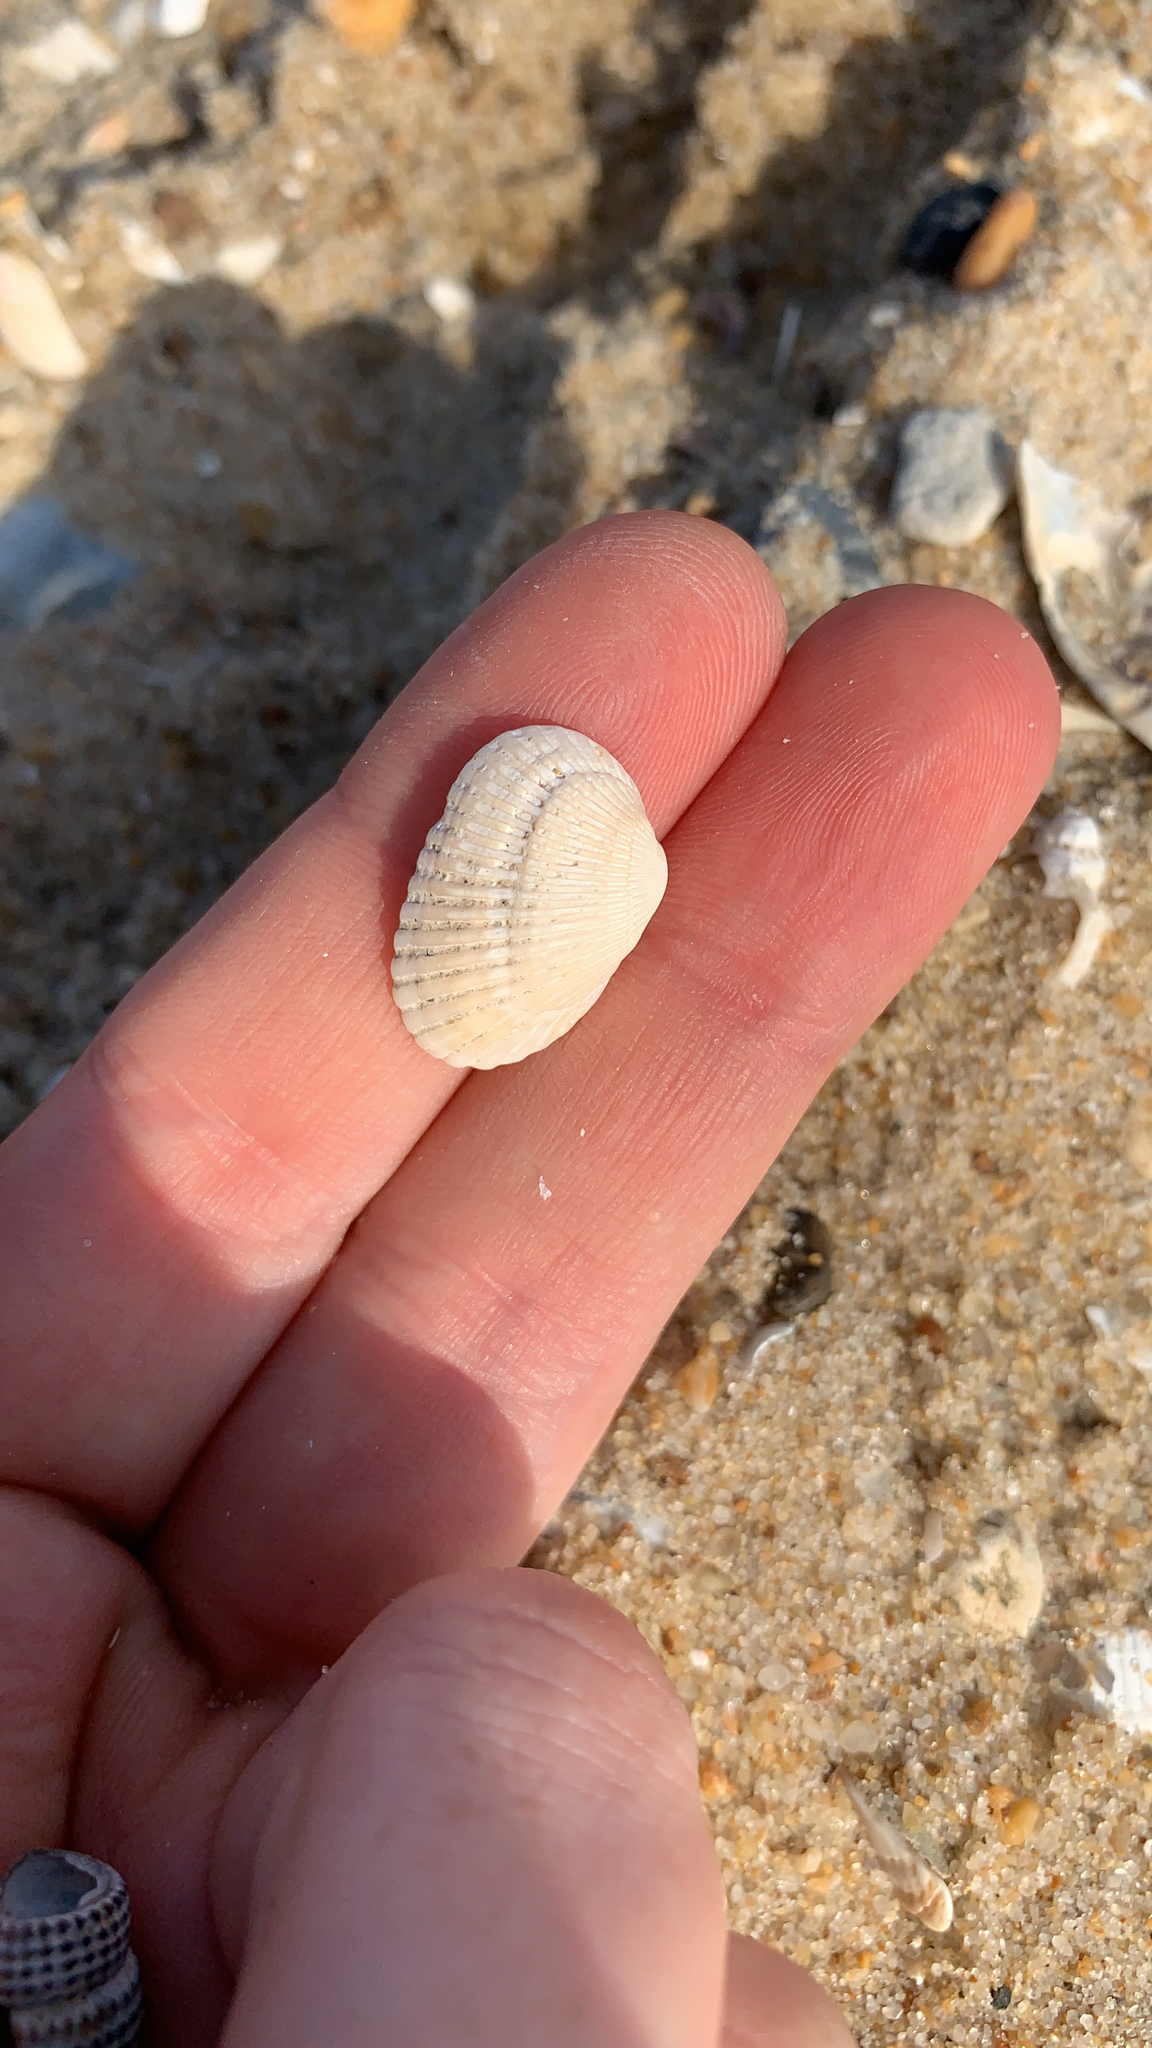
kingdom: Animalia
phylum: Mollusca
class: Bivalvia
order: Arcida
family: Arcidae
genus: Anadara
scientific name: Anadara transversa
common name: Transverse ark
